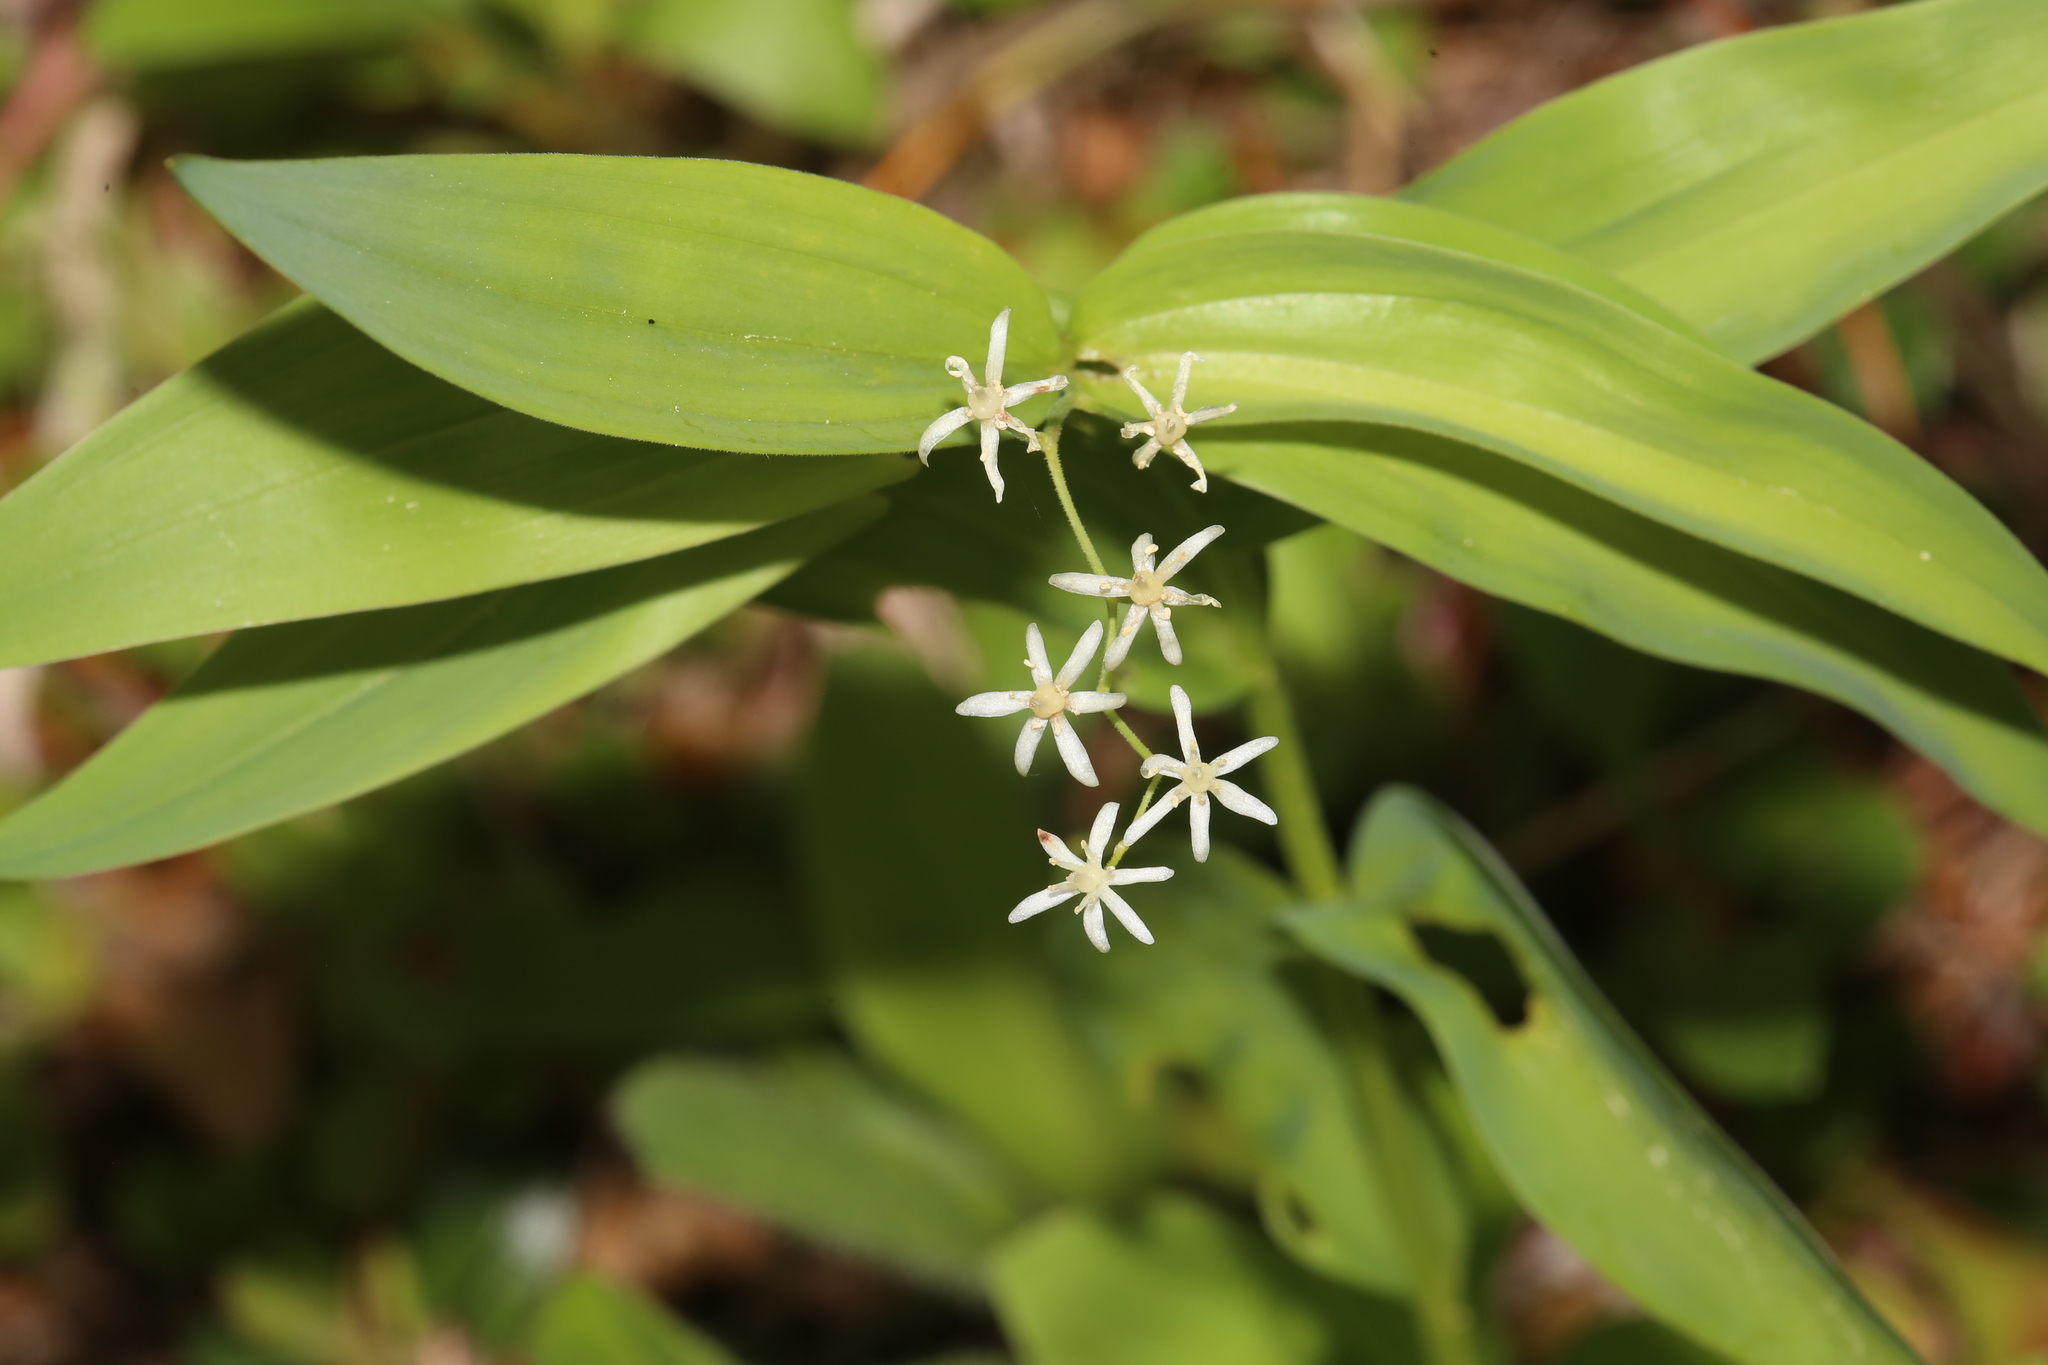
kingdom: Plantae
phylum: Tracheophyta
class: Liliopsida
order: Asparagales
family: Asparagaceae
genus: Maianthemum
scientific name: Maianthemum stellatum
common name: Little false solomon's seal
